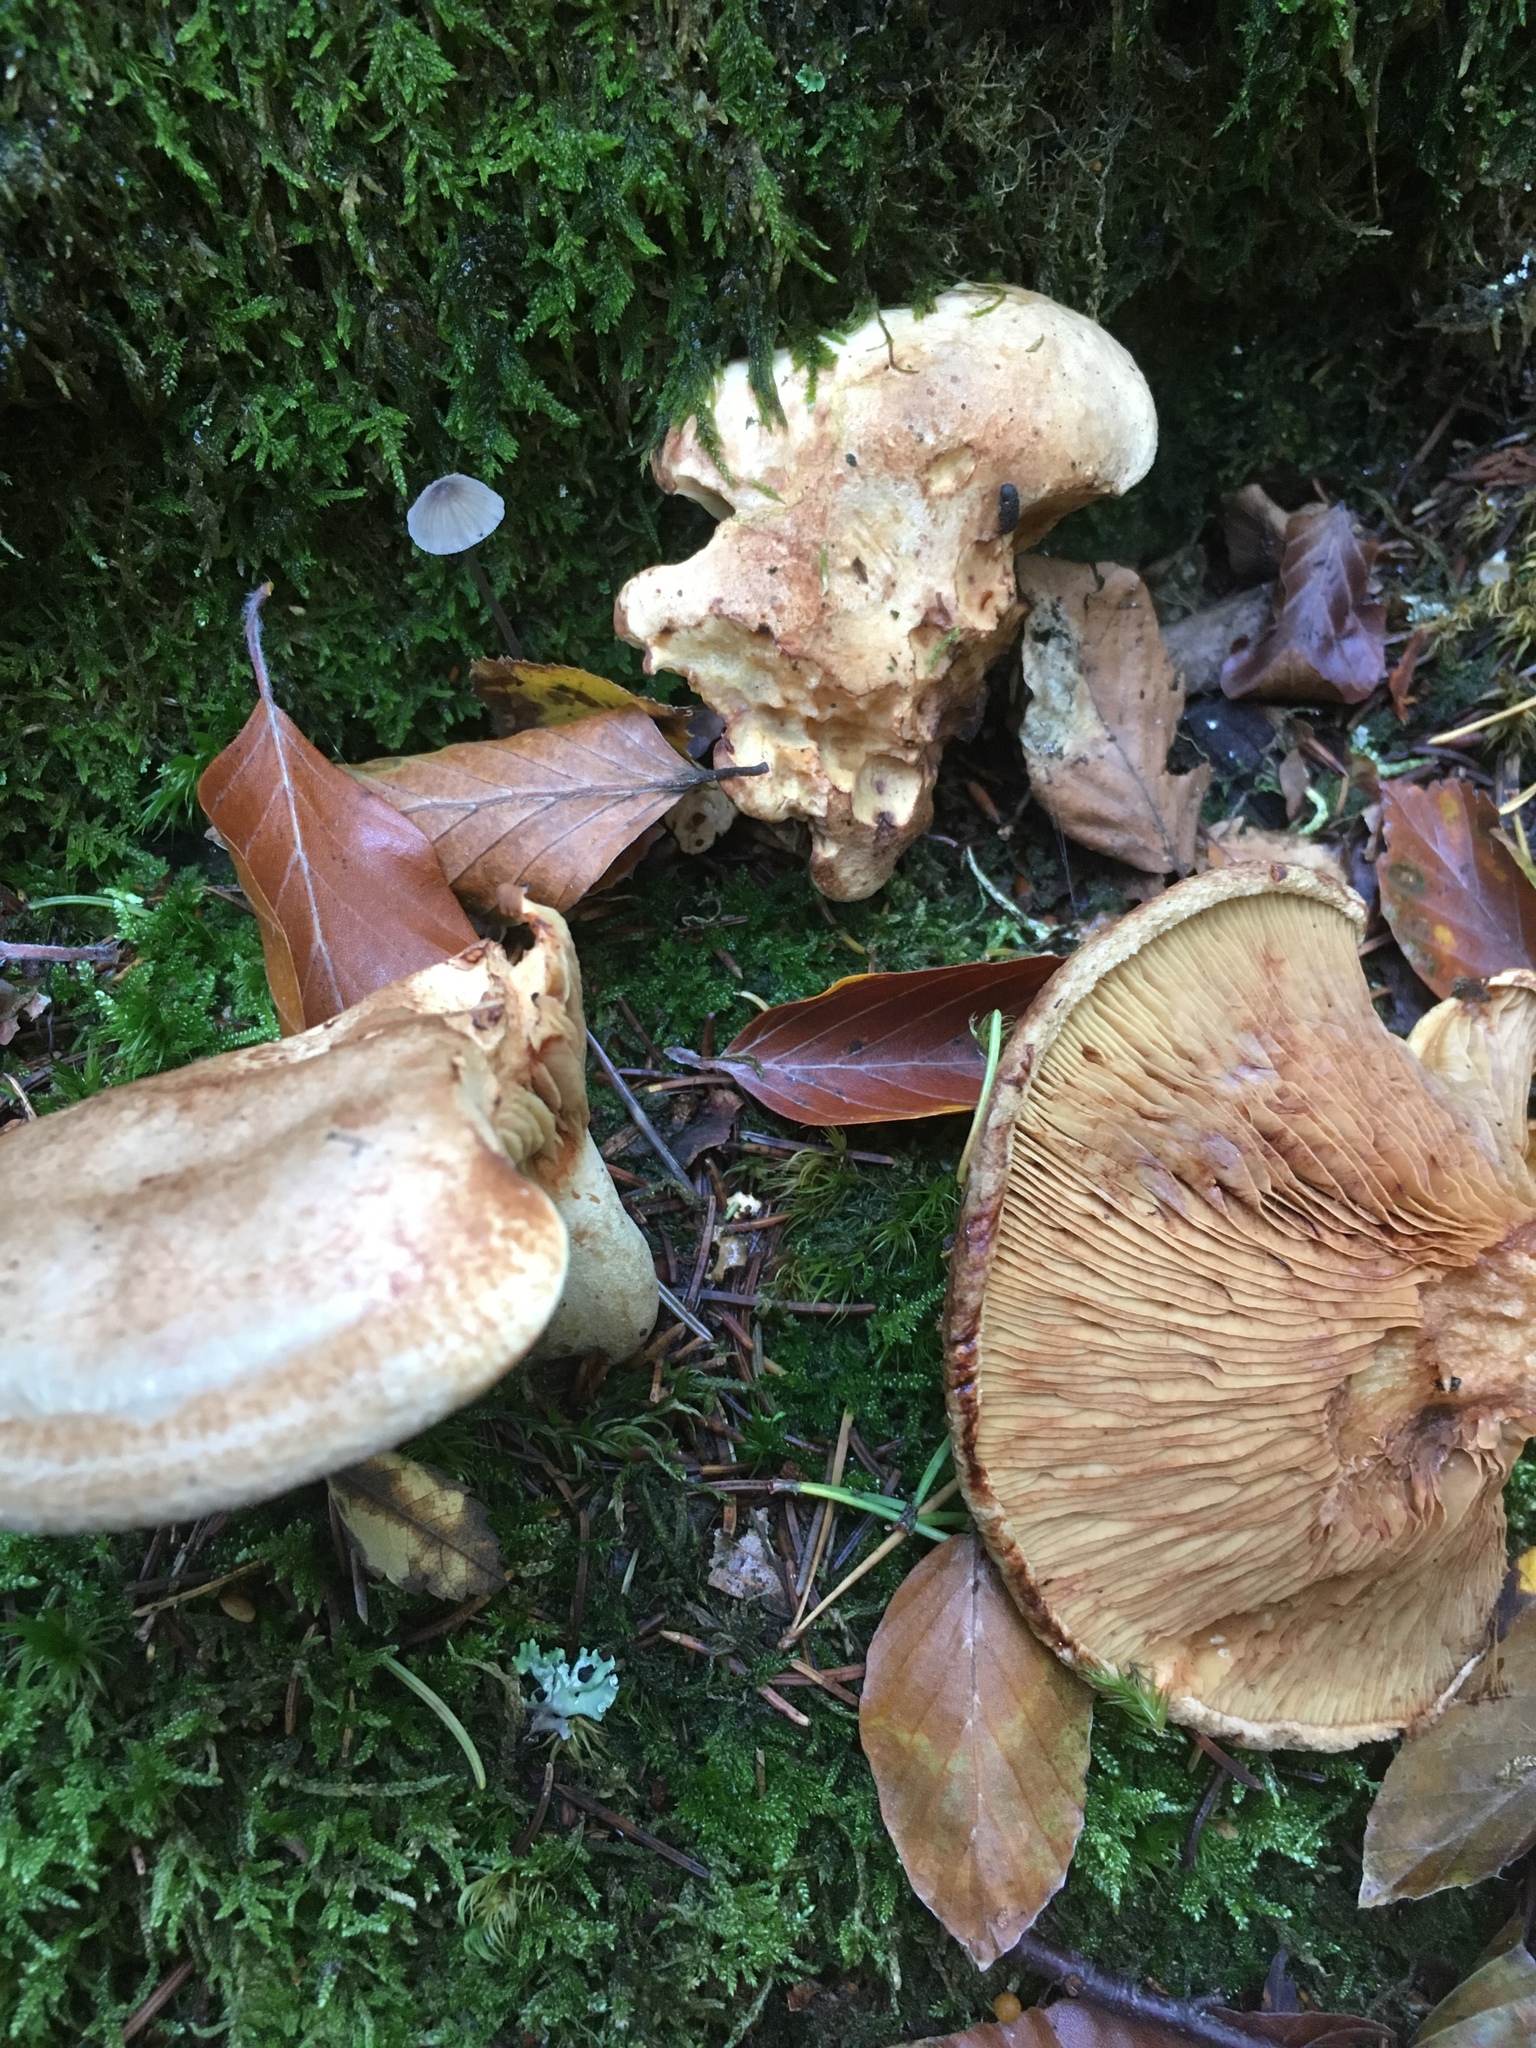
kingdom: Fungi
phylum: Basidiomycota
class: Agaricomycetes
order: Boletales
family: Paxillaceae
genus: Paxillus
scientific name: Paxillus involutus
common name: Brown roll rim
